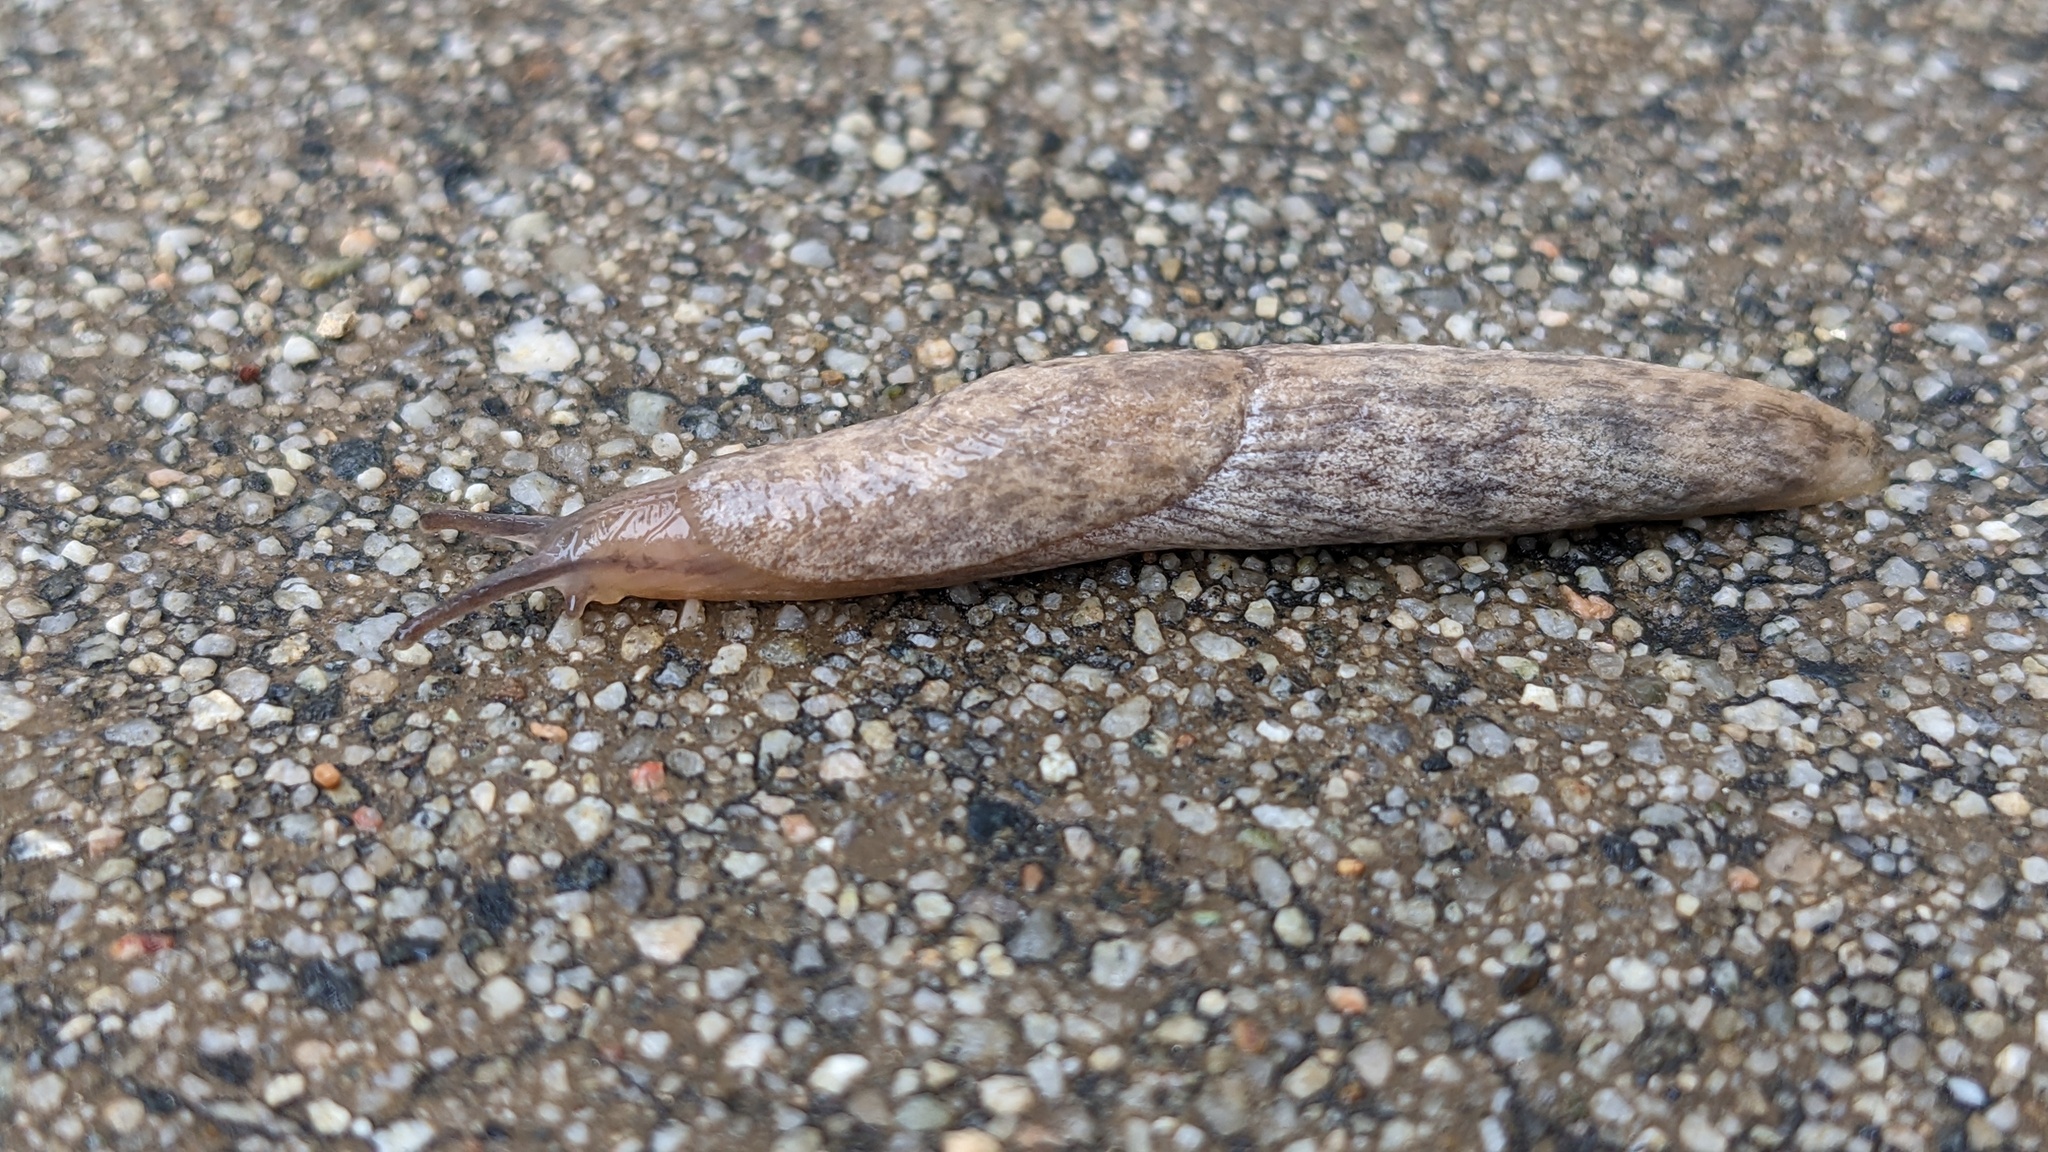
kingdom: Animalia
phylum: Mollusca
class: Gastropoda
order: Stylommatophora
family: Agriolimacidae
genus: Deroceras
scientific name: Deroceras reticulatum
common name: Gray field slug
